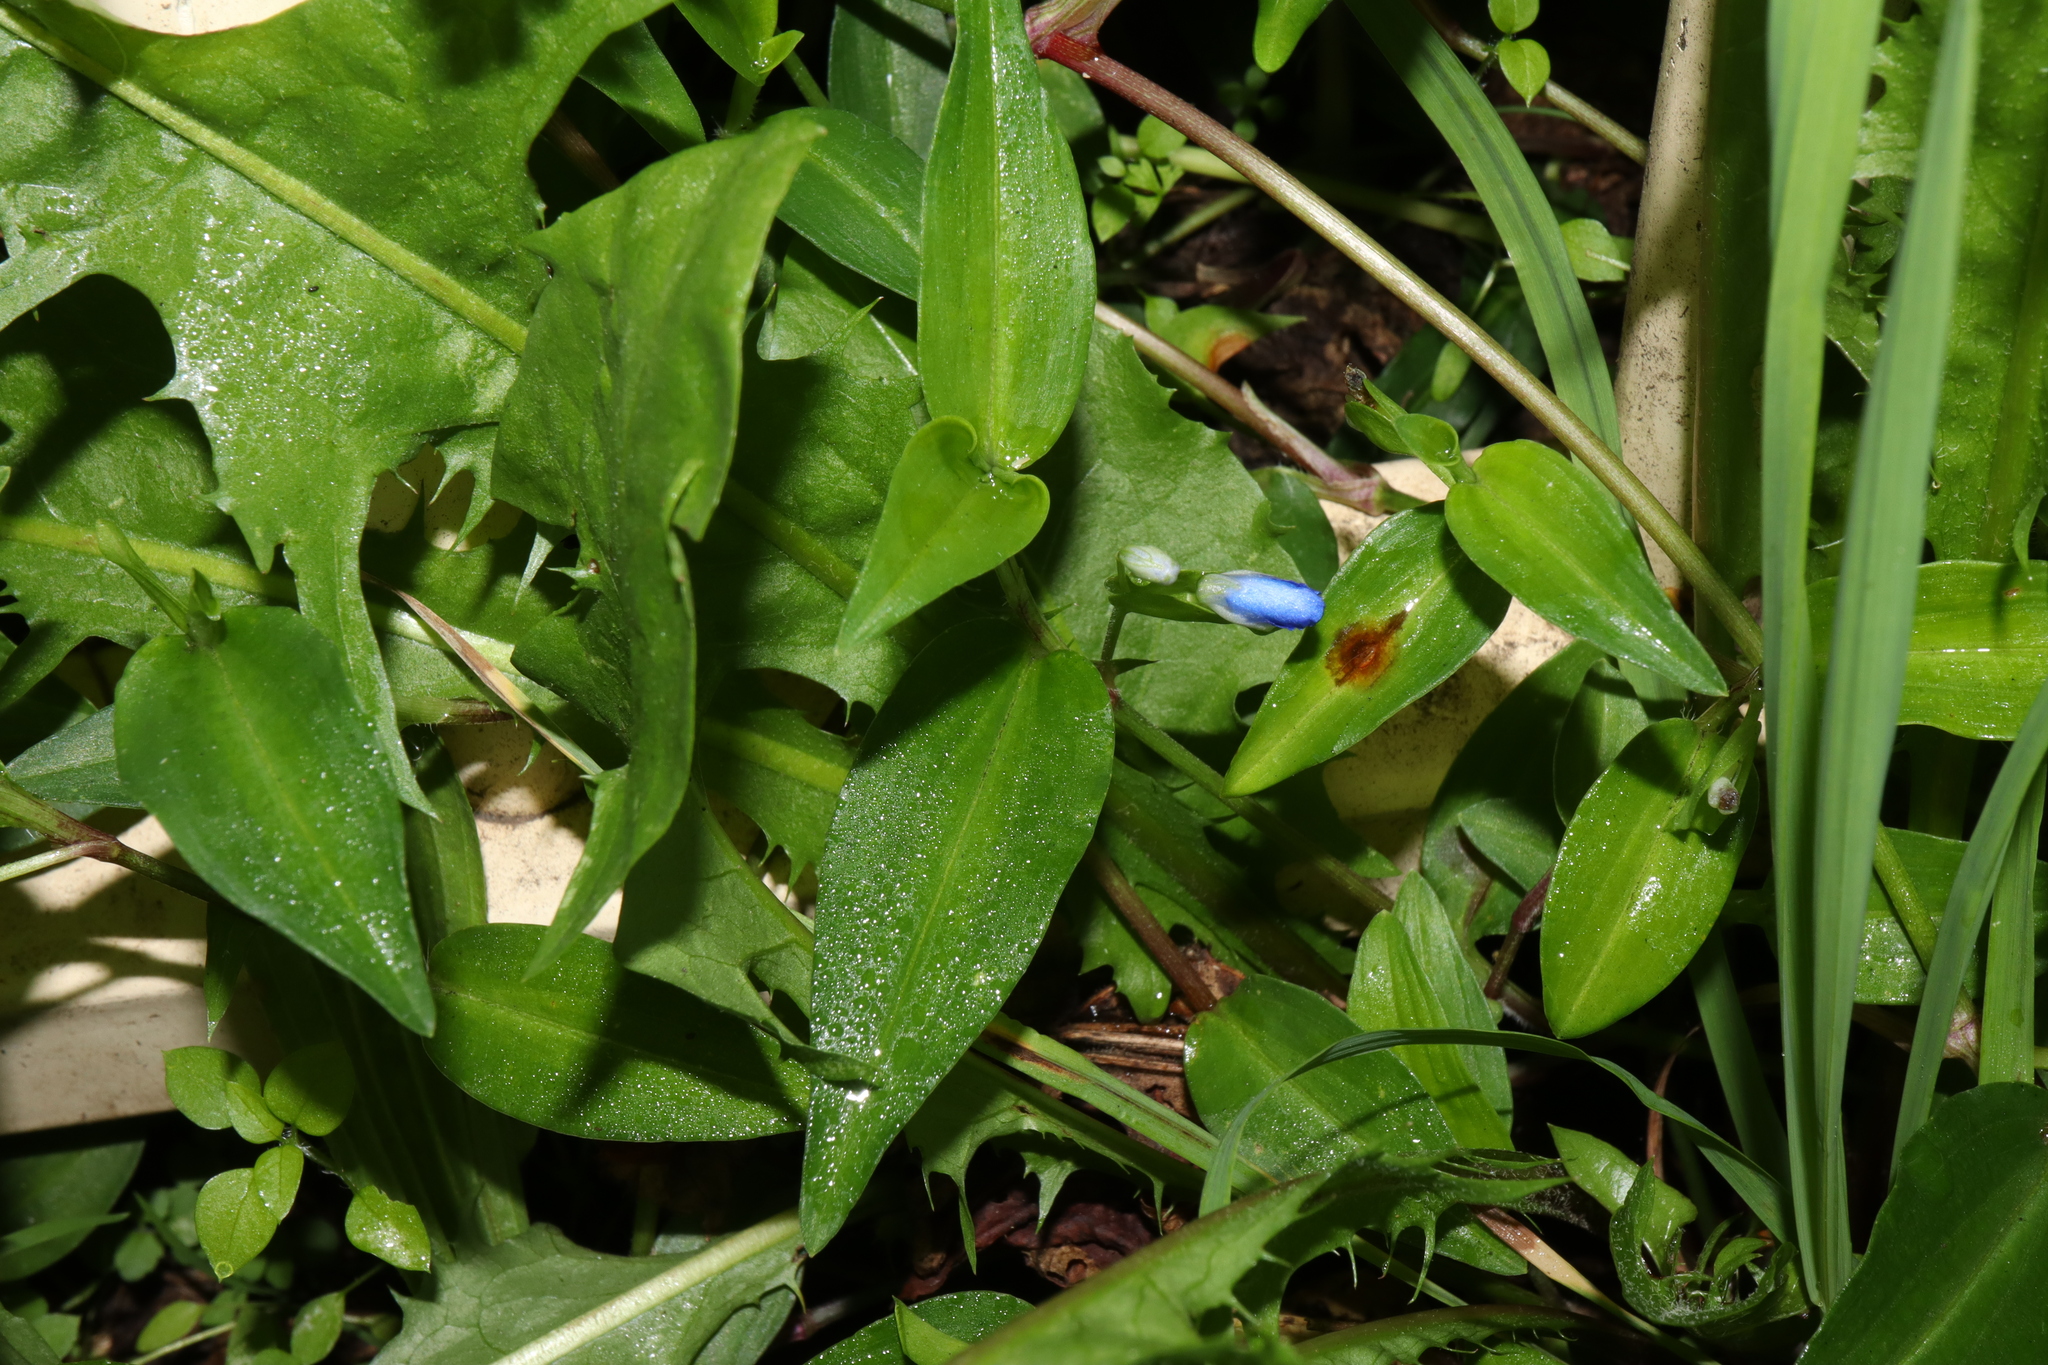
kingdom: Plantae
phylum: Tracheophyta
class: Liliopsida
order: Commelinales
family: Commelinaceae
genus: Commelina
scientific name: Commelina cyanea
